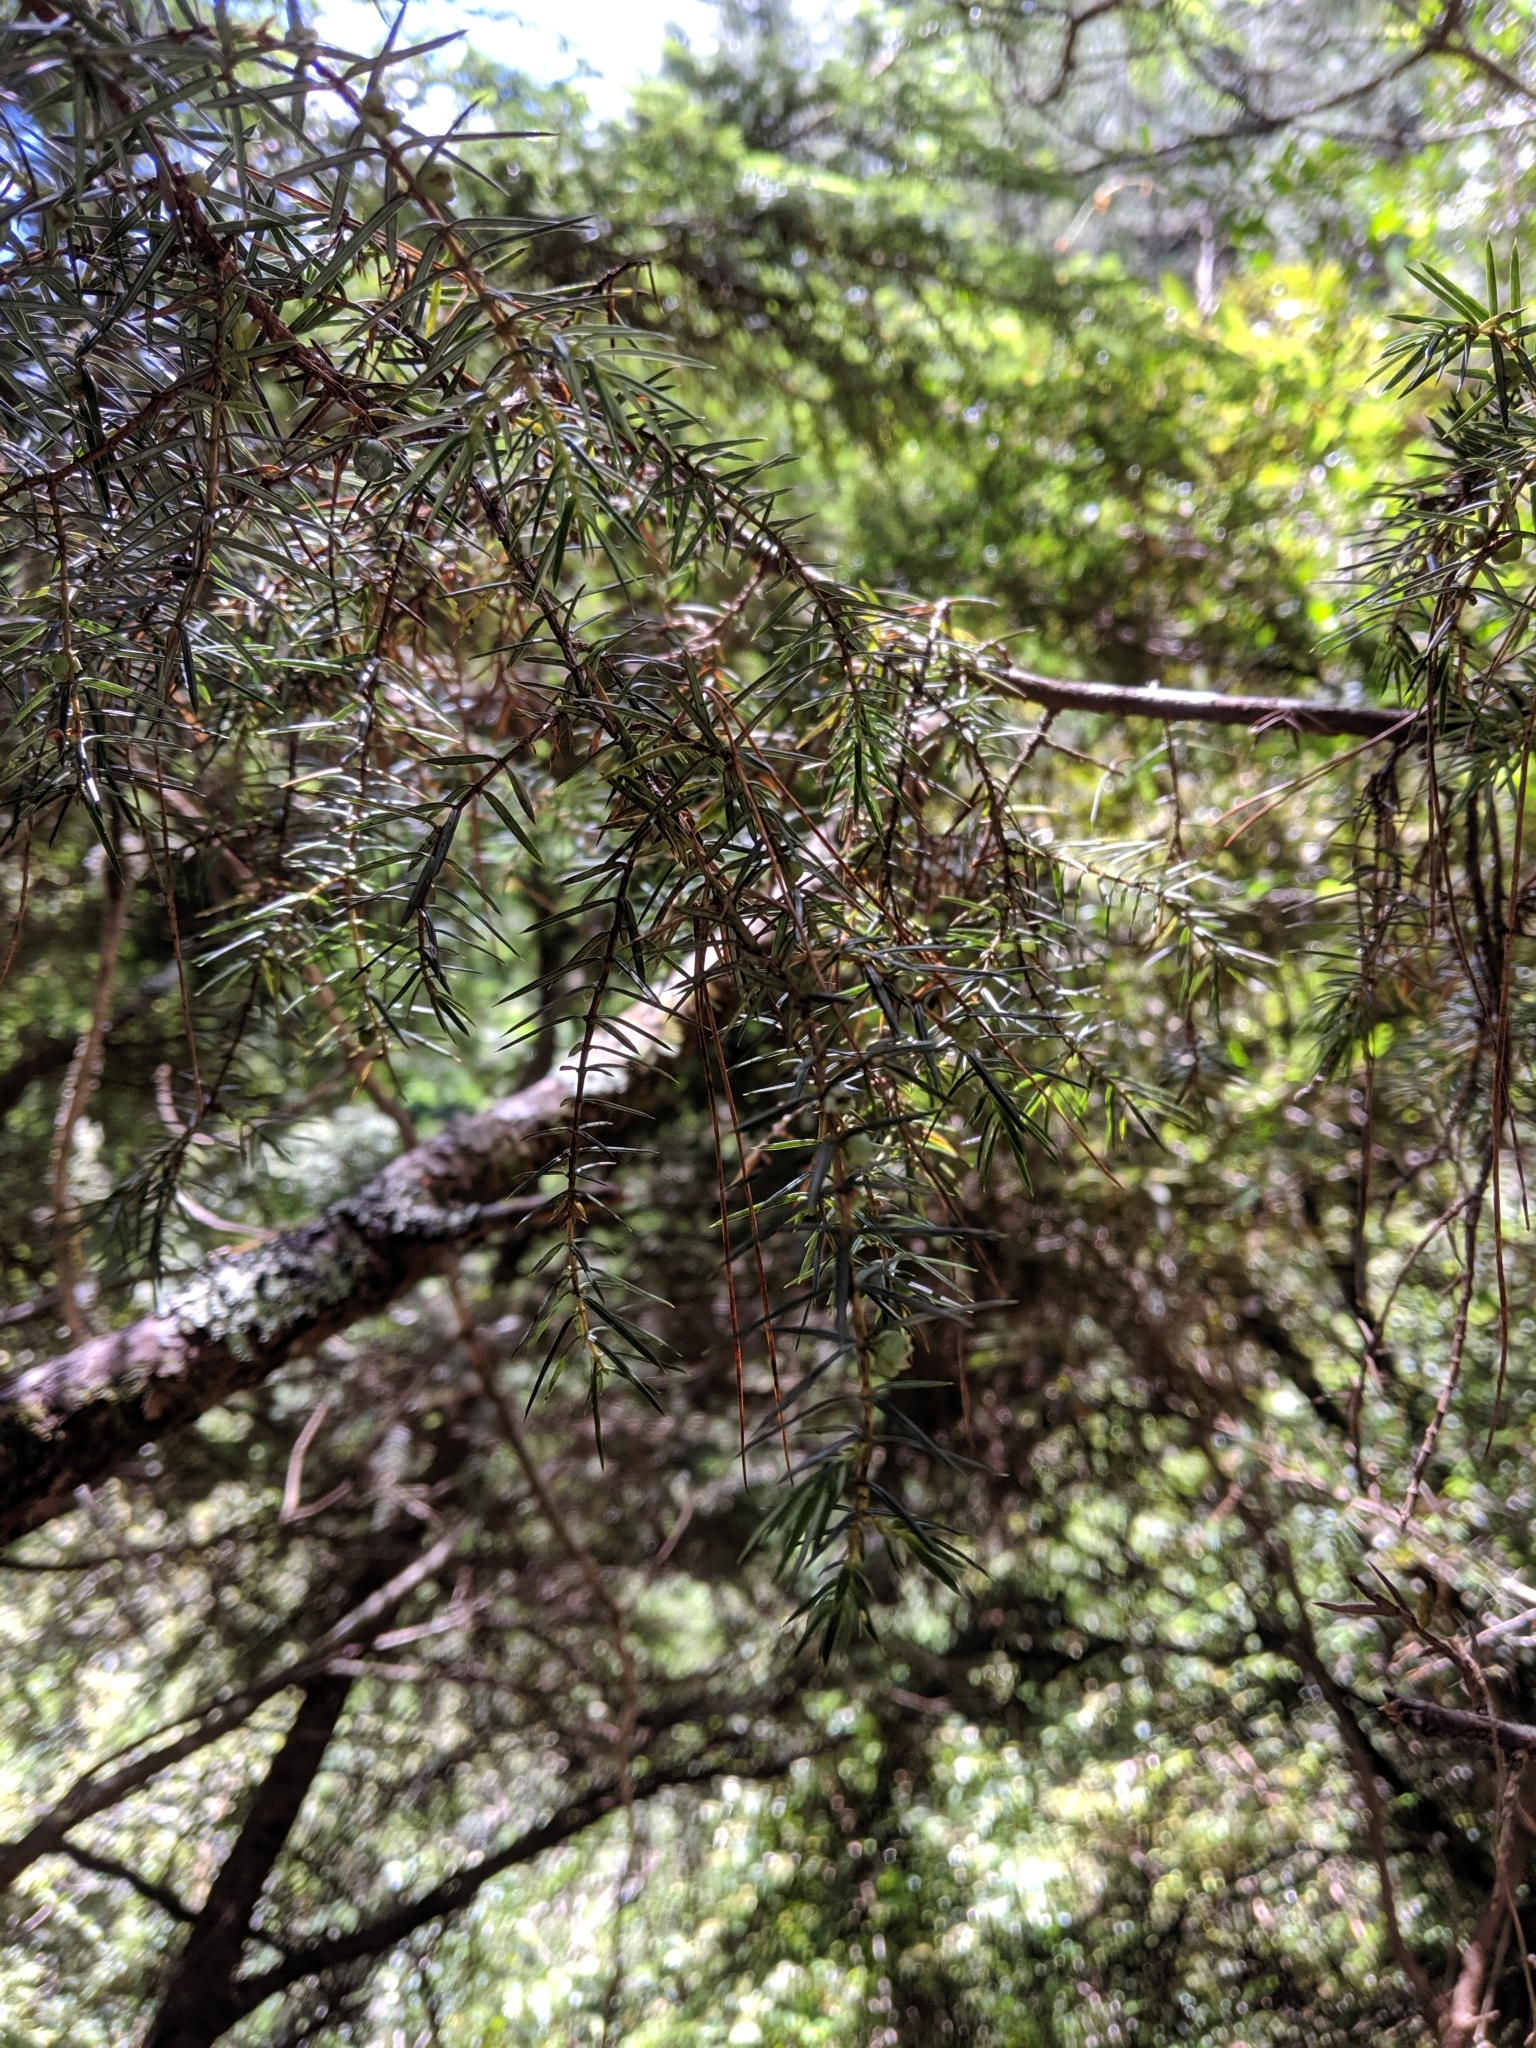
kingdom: Plantae
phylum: Tracheophyta
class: Pinopsida
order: Pinales
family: Cupressaceae
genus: Juniperus
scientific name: Juniperus formosana
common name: Formosan juniper
